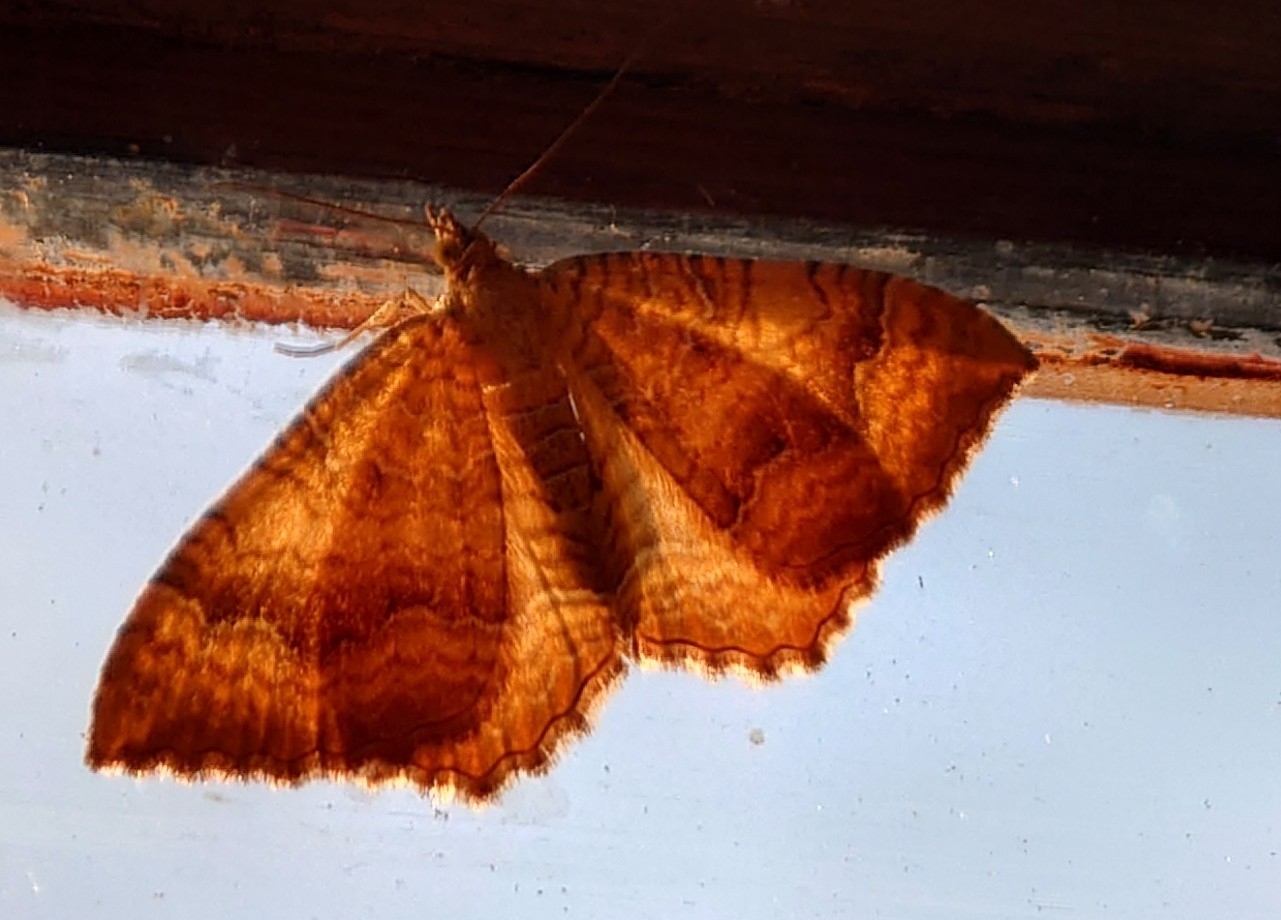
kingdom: Animalia
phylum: Arthropoda
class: Insecta
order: Lepidoptera
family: Geometridae
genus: Camptogramma
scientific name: Camptogramma bilineata
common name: Yellow shell
